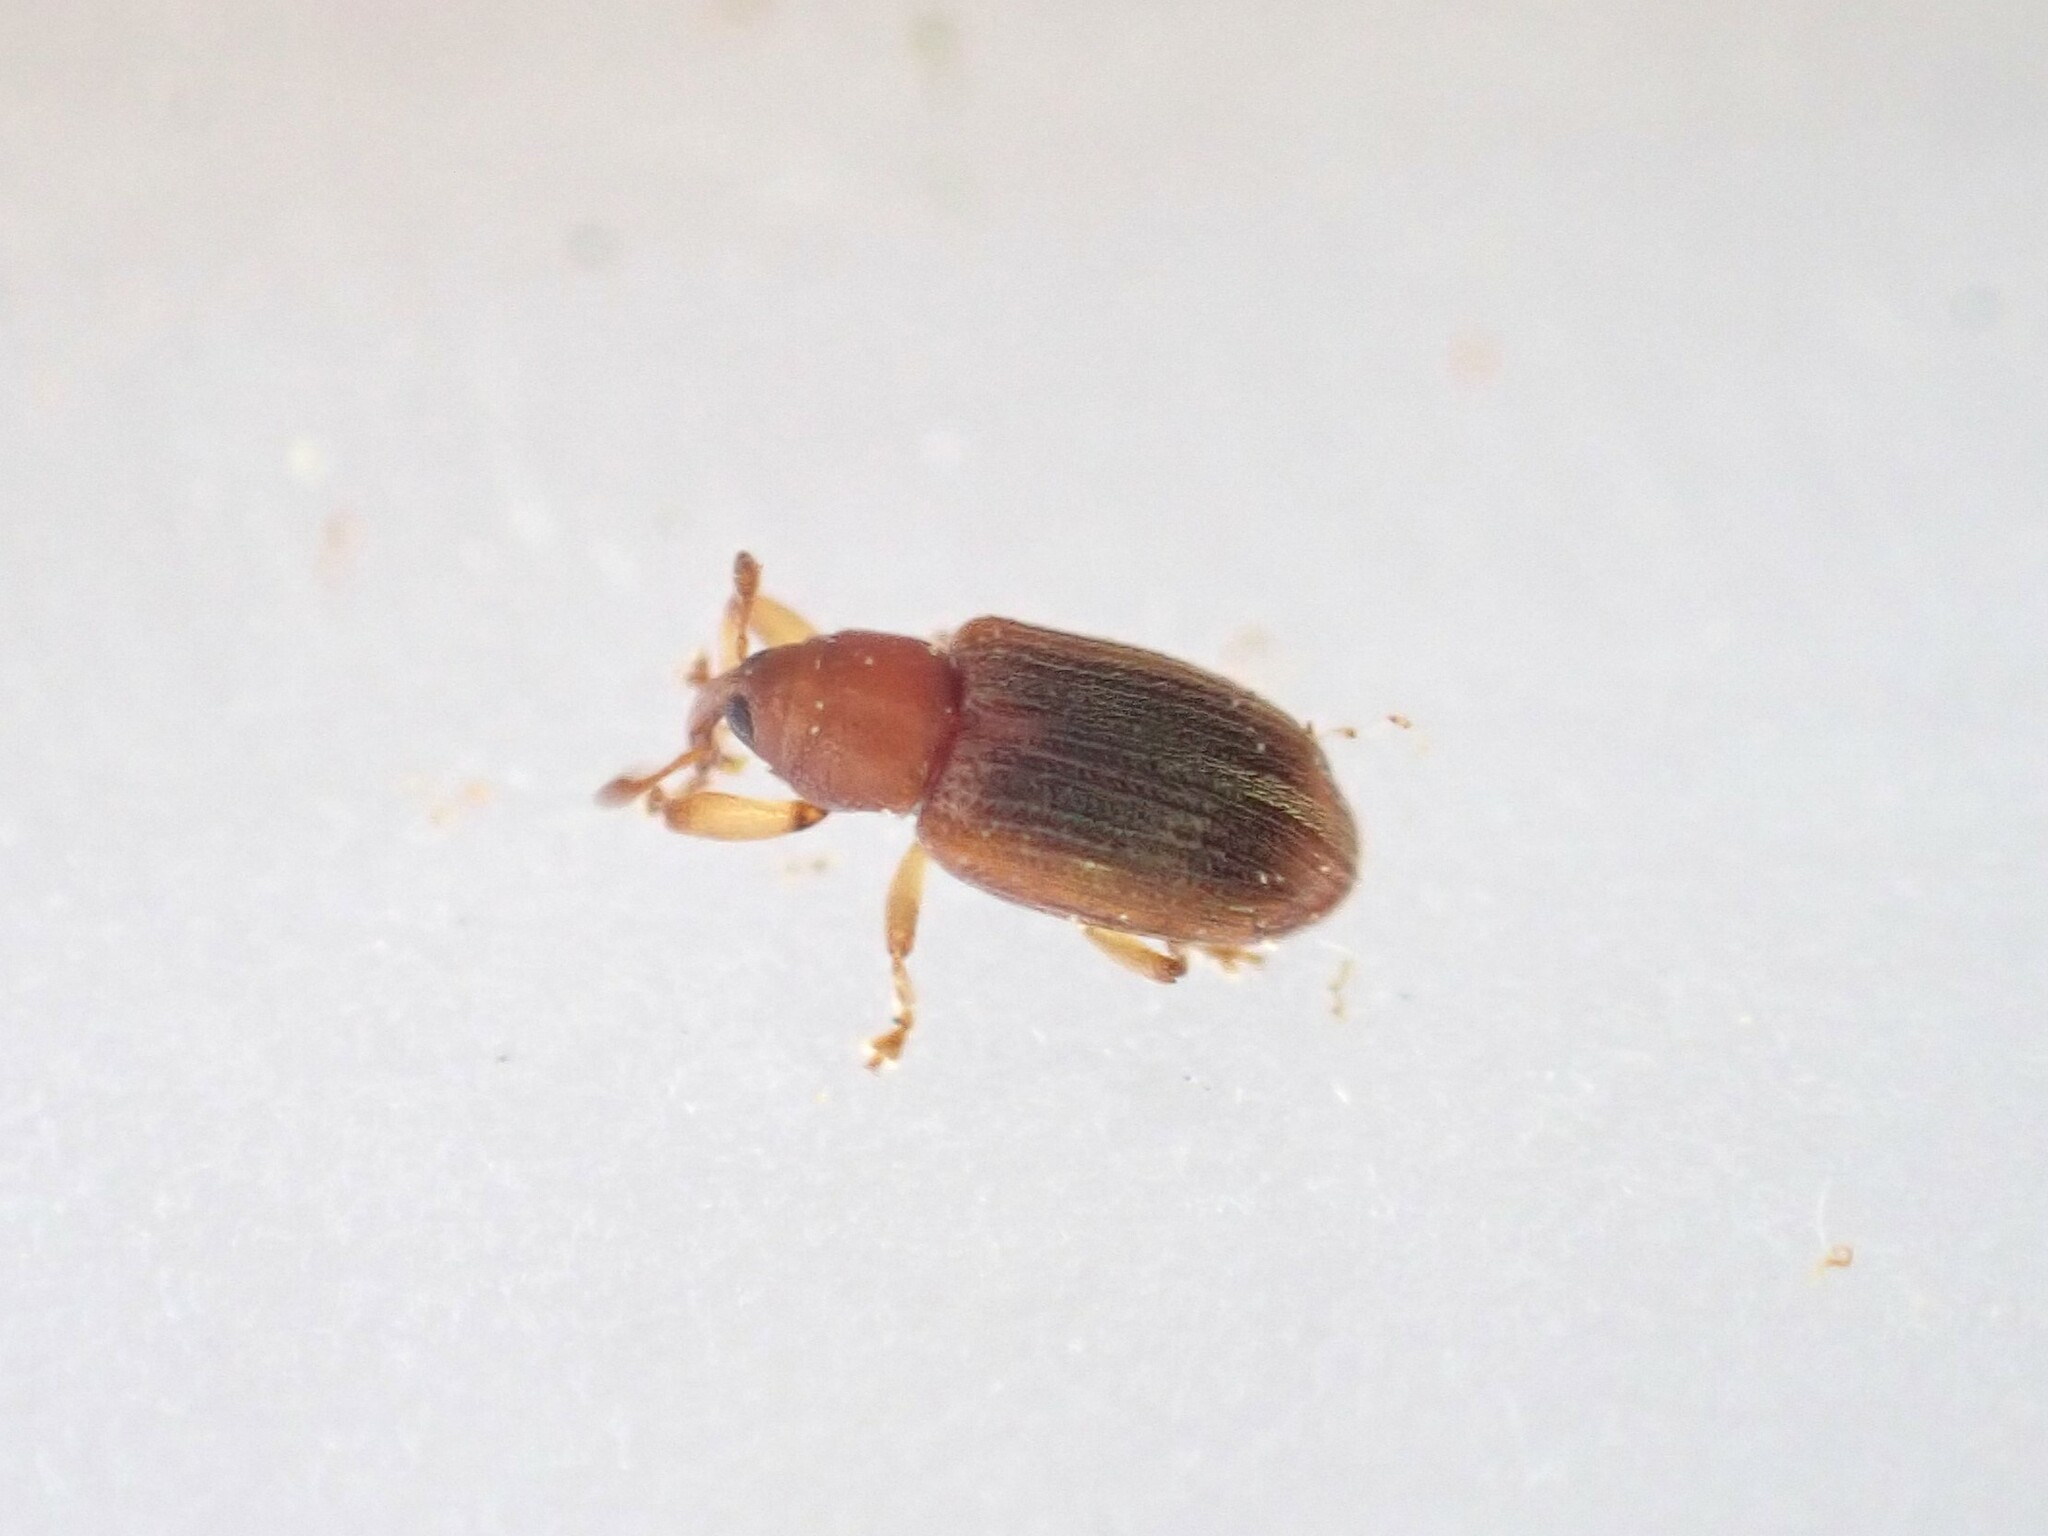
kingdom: Animalia
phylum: Arthropoda
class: Insecta
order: Coleoptera
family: Curculionidae
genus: Aneuma
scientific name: Aneuma
